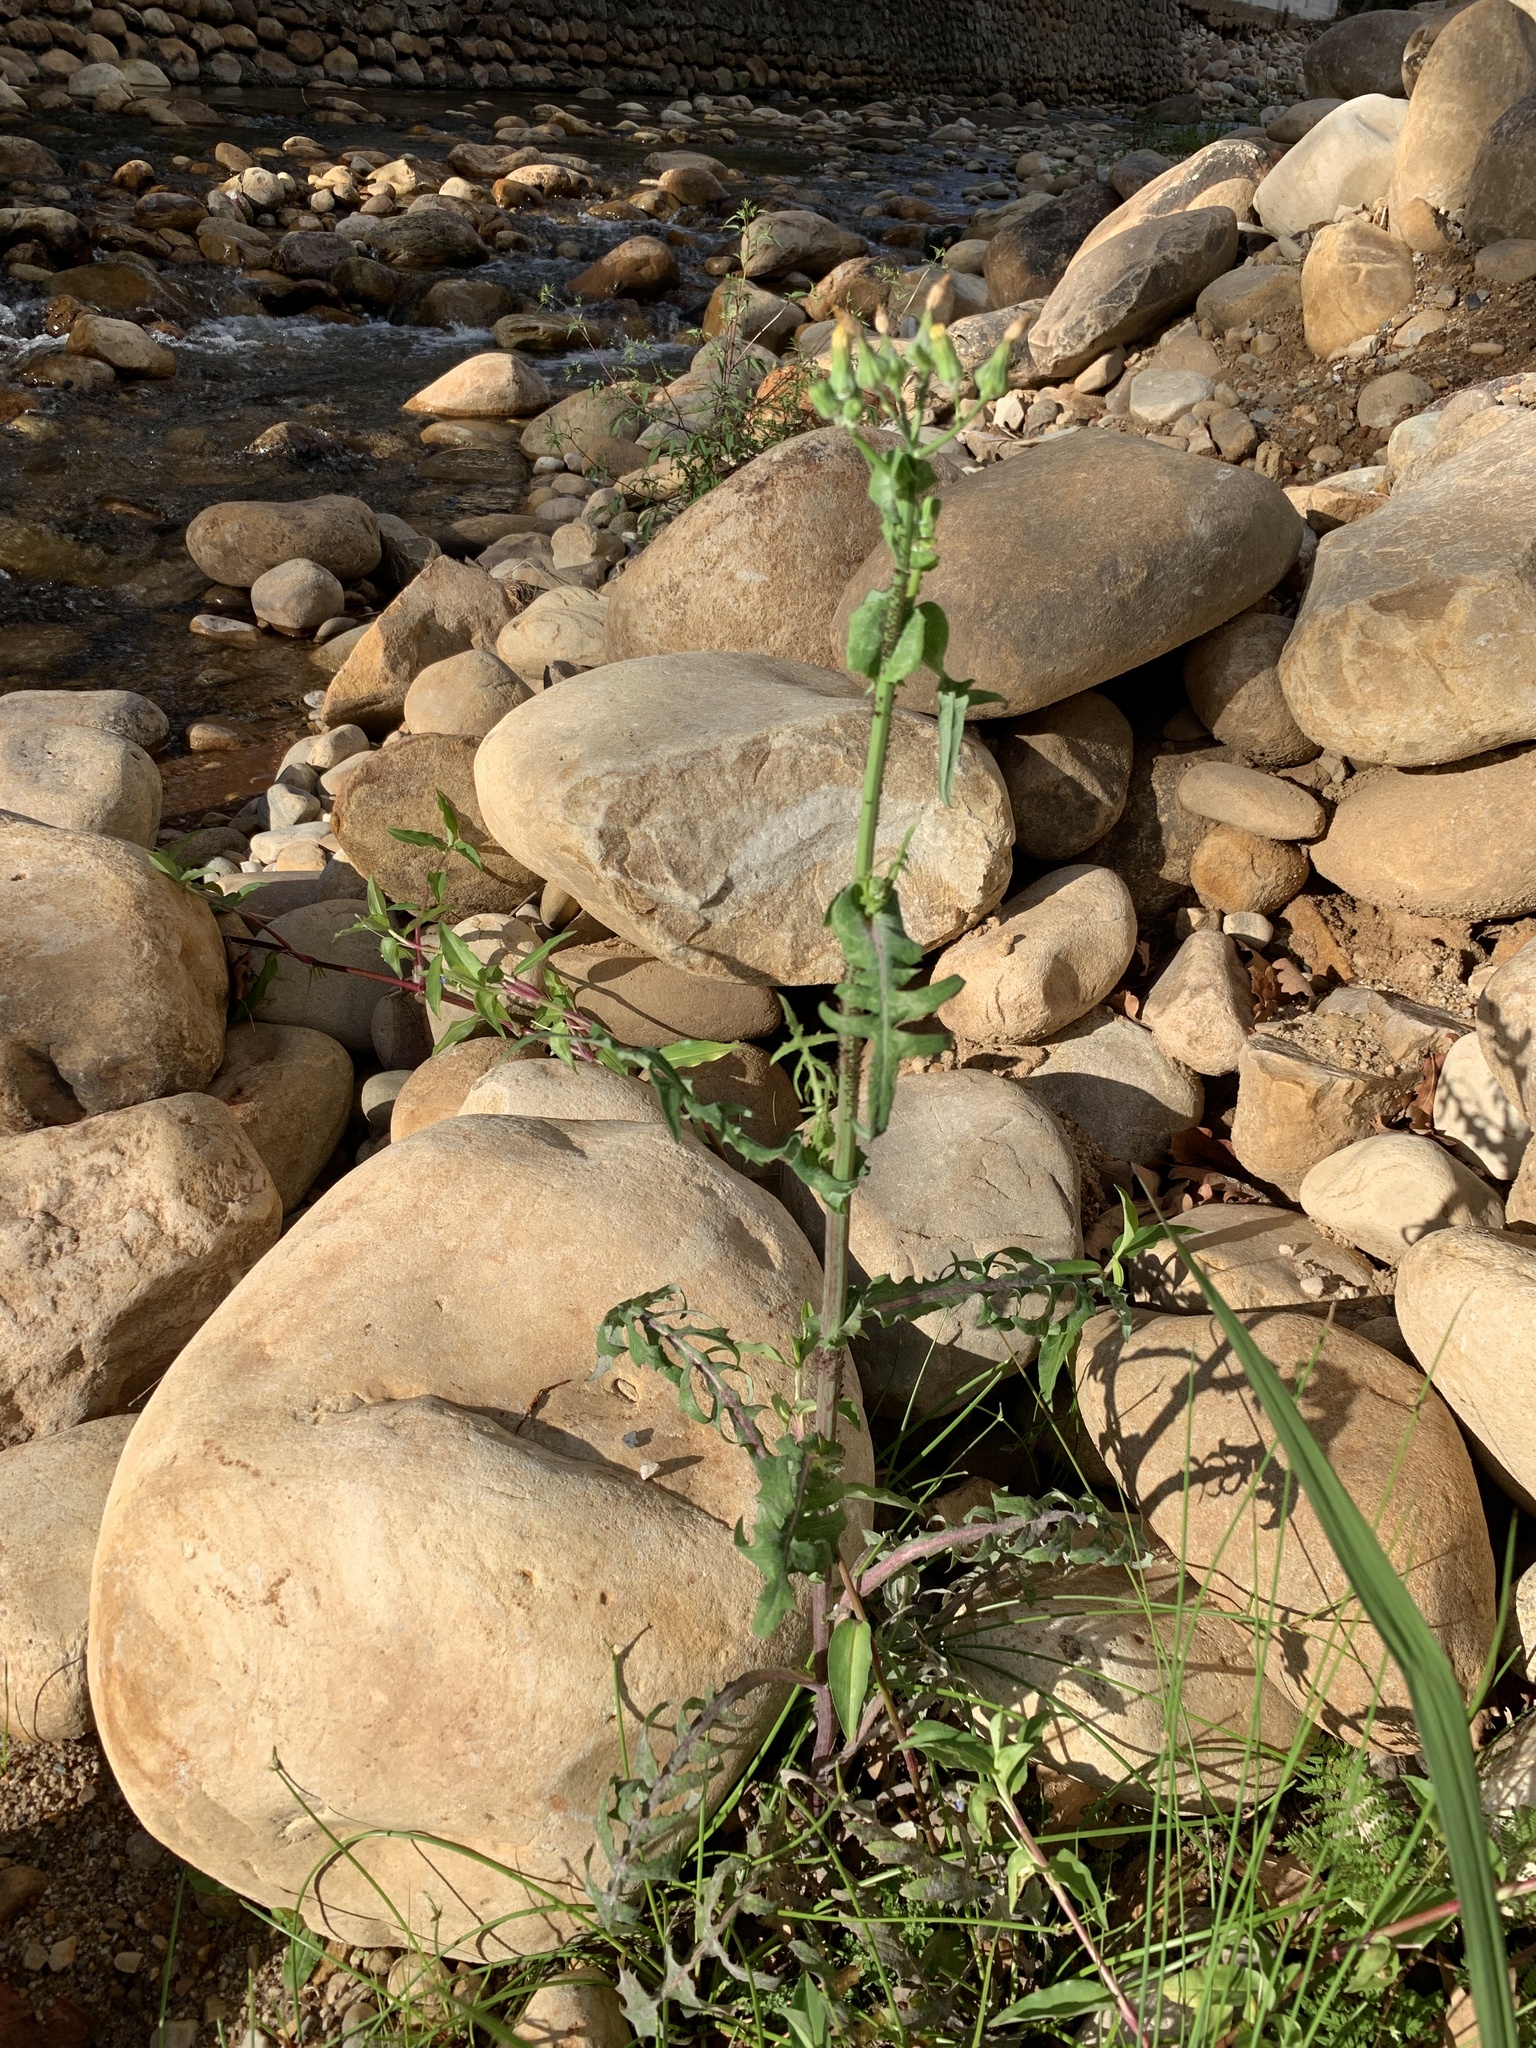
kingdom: Plantae
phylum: Tracheophyta
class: Magnoliopsida
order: Asterales
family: Asteraceae
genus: Sonchus
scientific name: Sonchus oleraceus
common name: Common sowthistle
